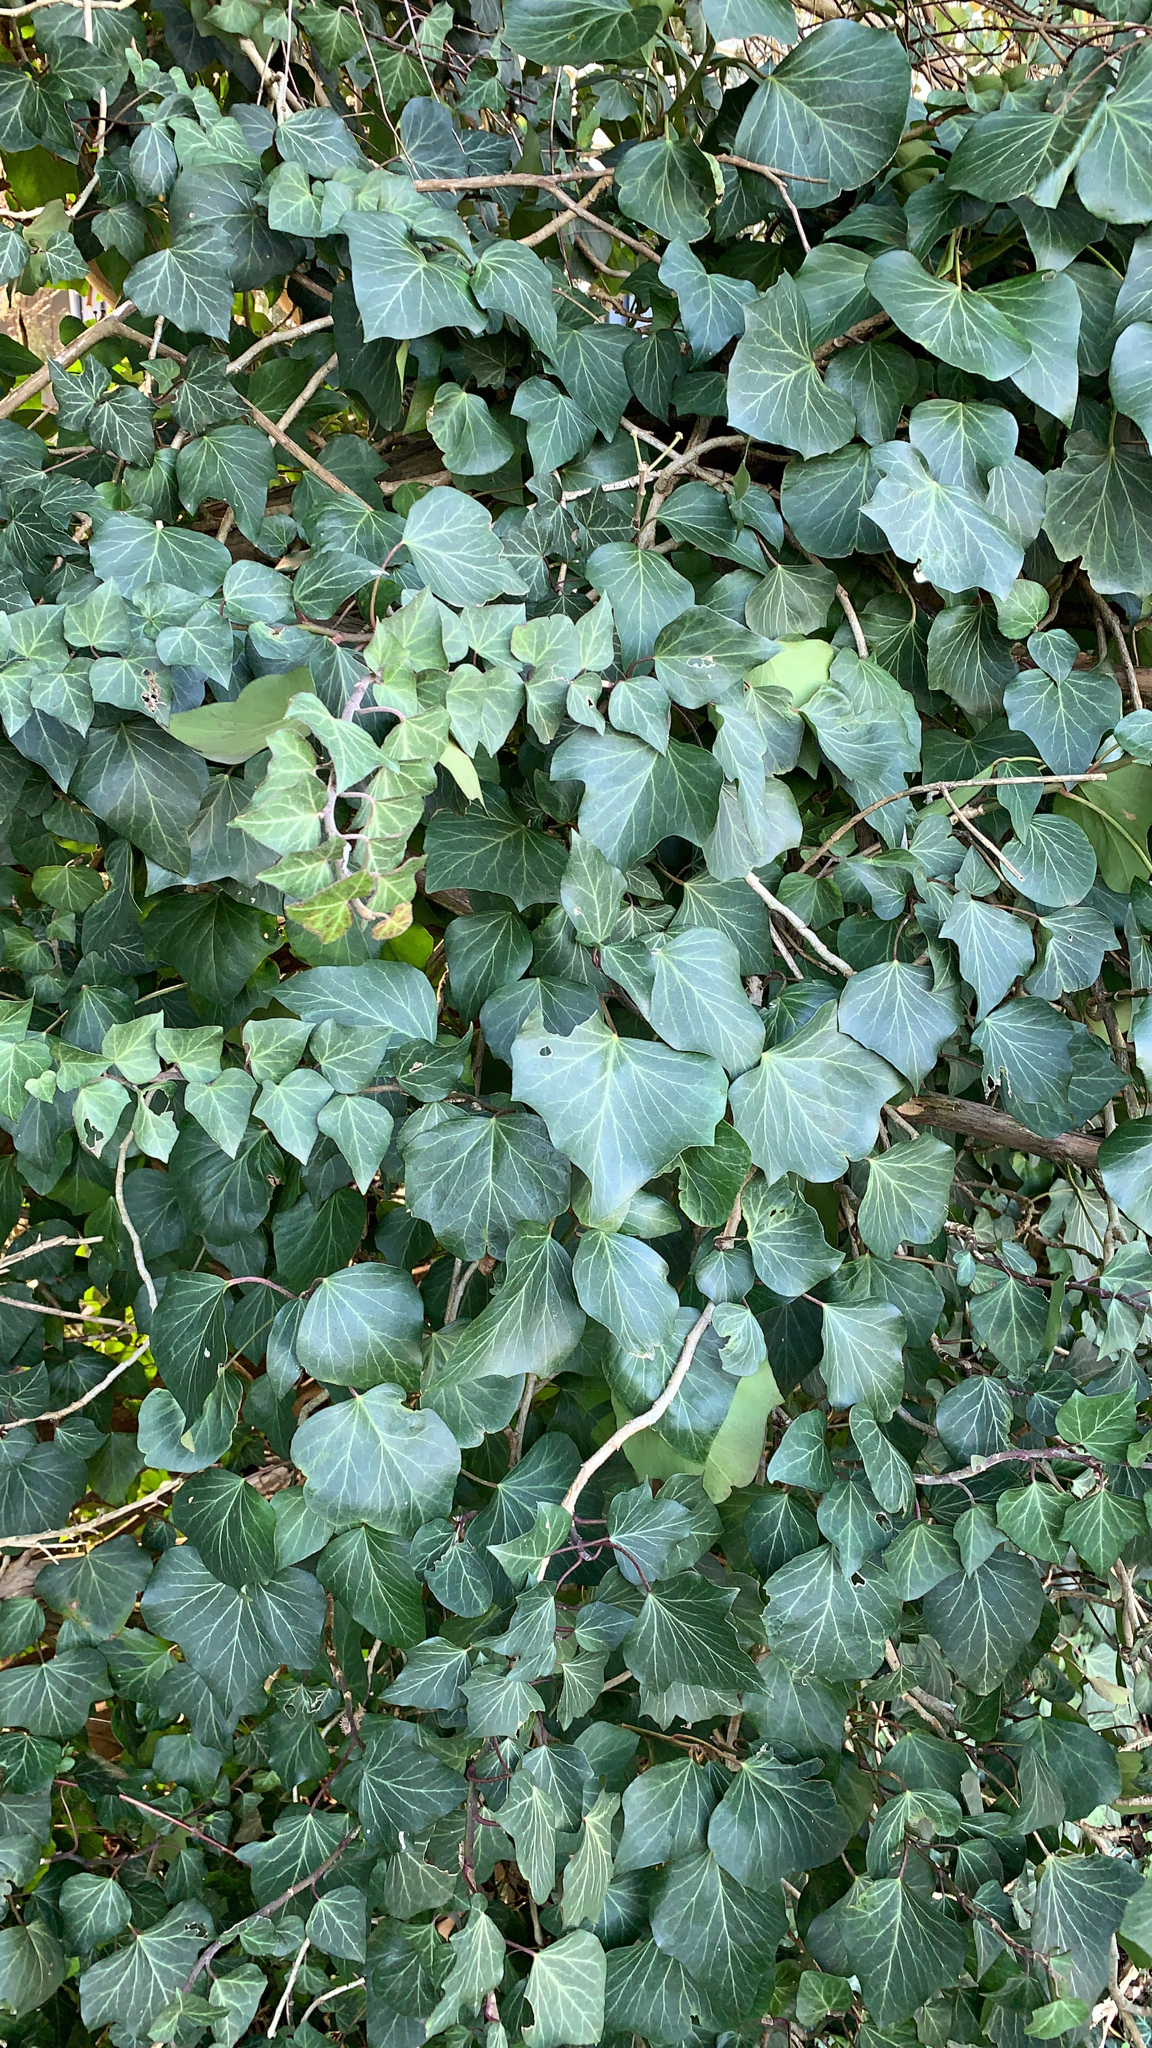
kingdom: Plantae
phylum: Tracheophyta
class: Magnoliopsida
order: Apiales
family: Araliaceae
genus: Hedera
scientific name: Hedera helix
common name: Ivy
